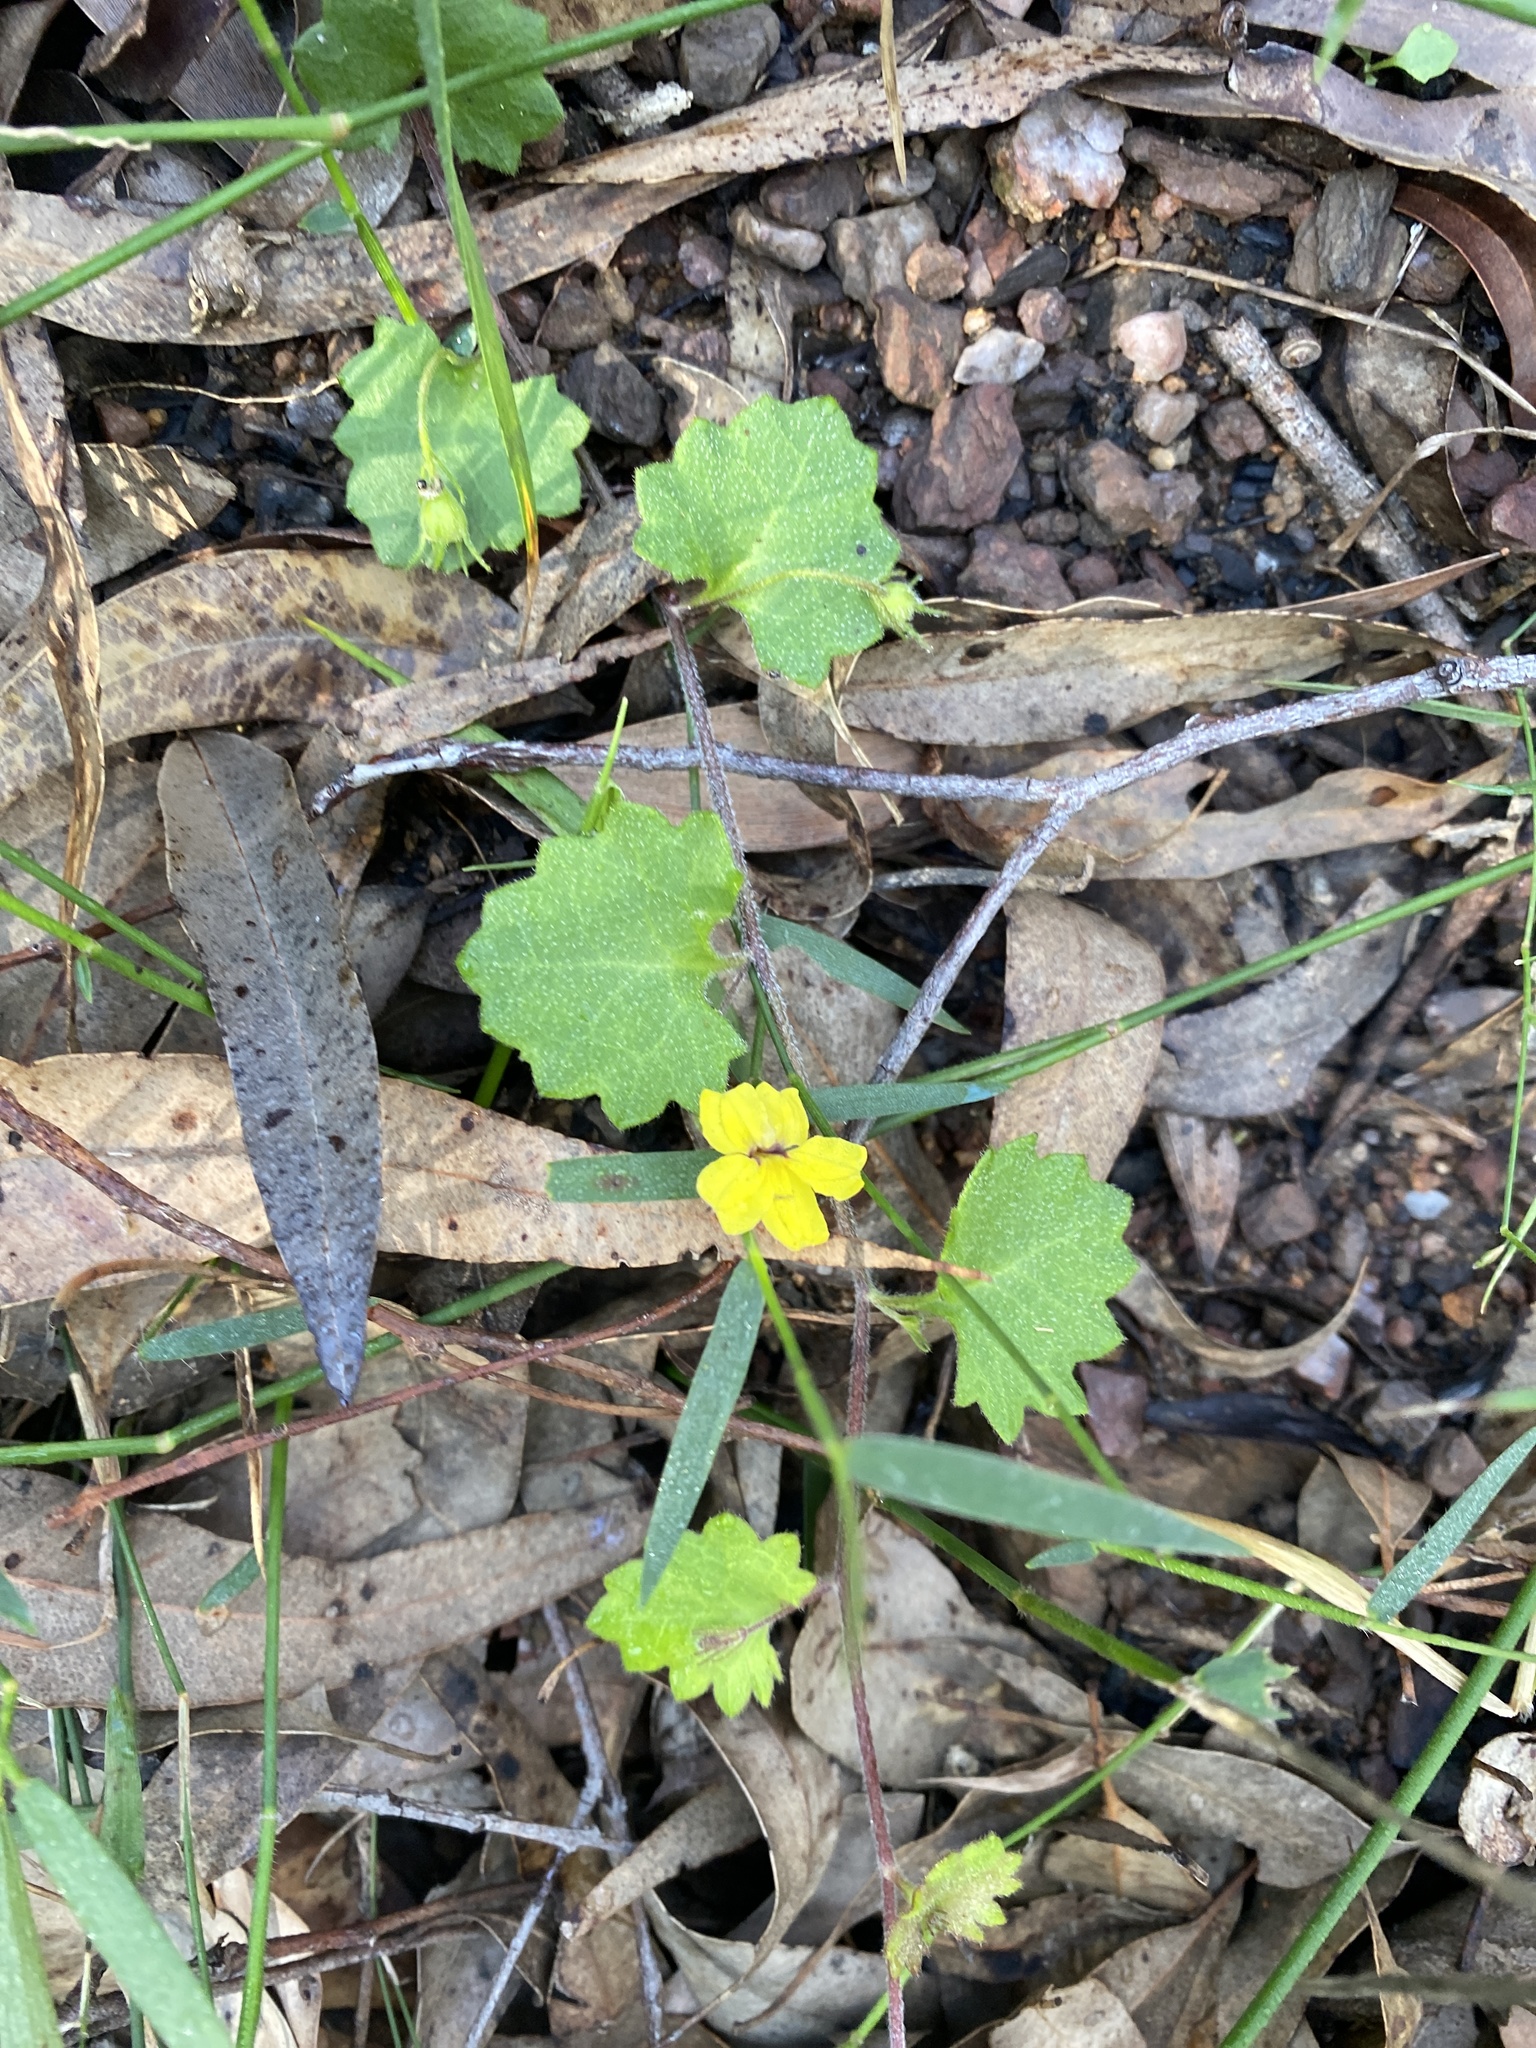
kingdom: Plantae
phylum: Tracheophyta
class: Magnoliopsida
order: Asterales
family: Goodeniaceae
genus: Goodenia
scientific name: Goodenia rotundifolia
